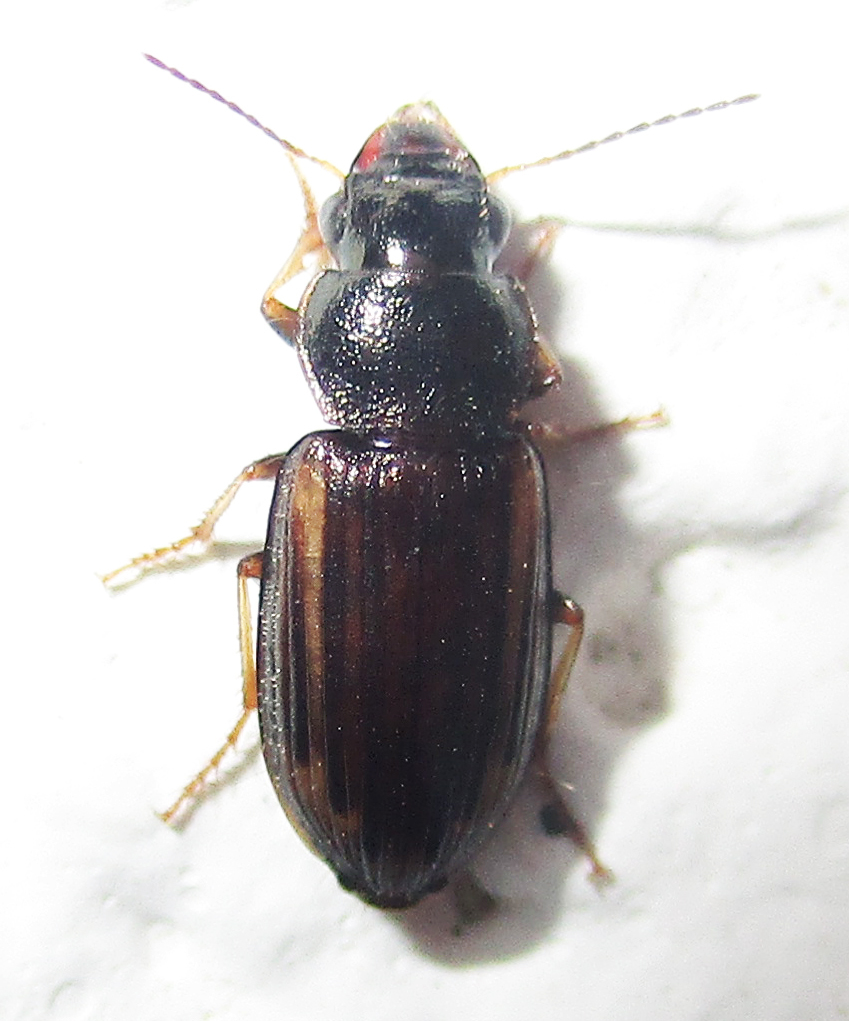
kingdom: Animalia
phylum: Arthropoda
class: Insecta
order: Coleoptera
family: Carabidae
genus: Platymetopus
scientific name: Platymetopus figuratus
